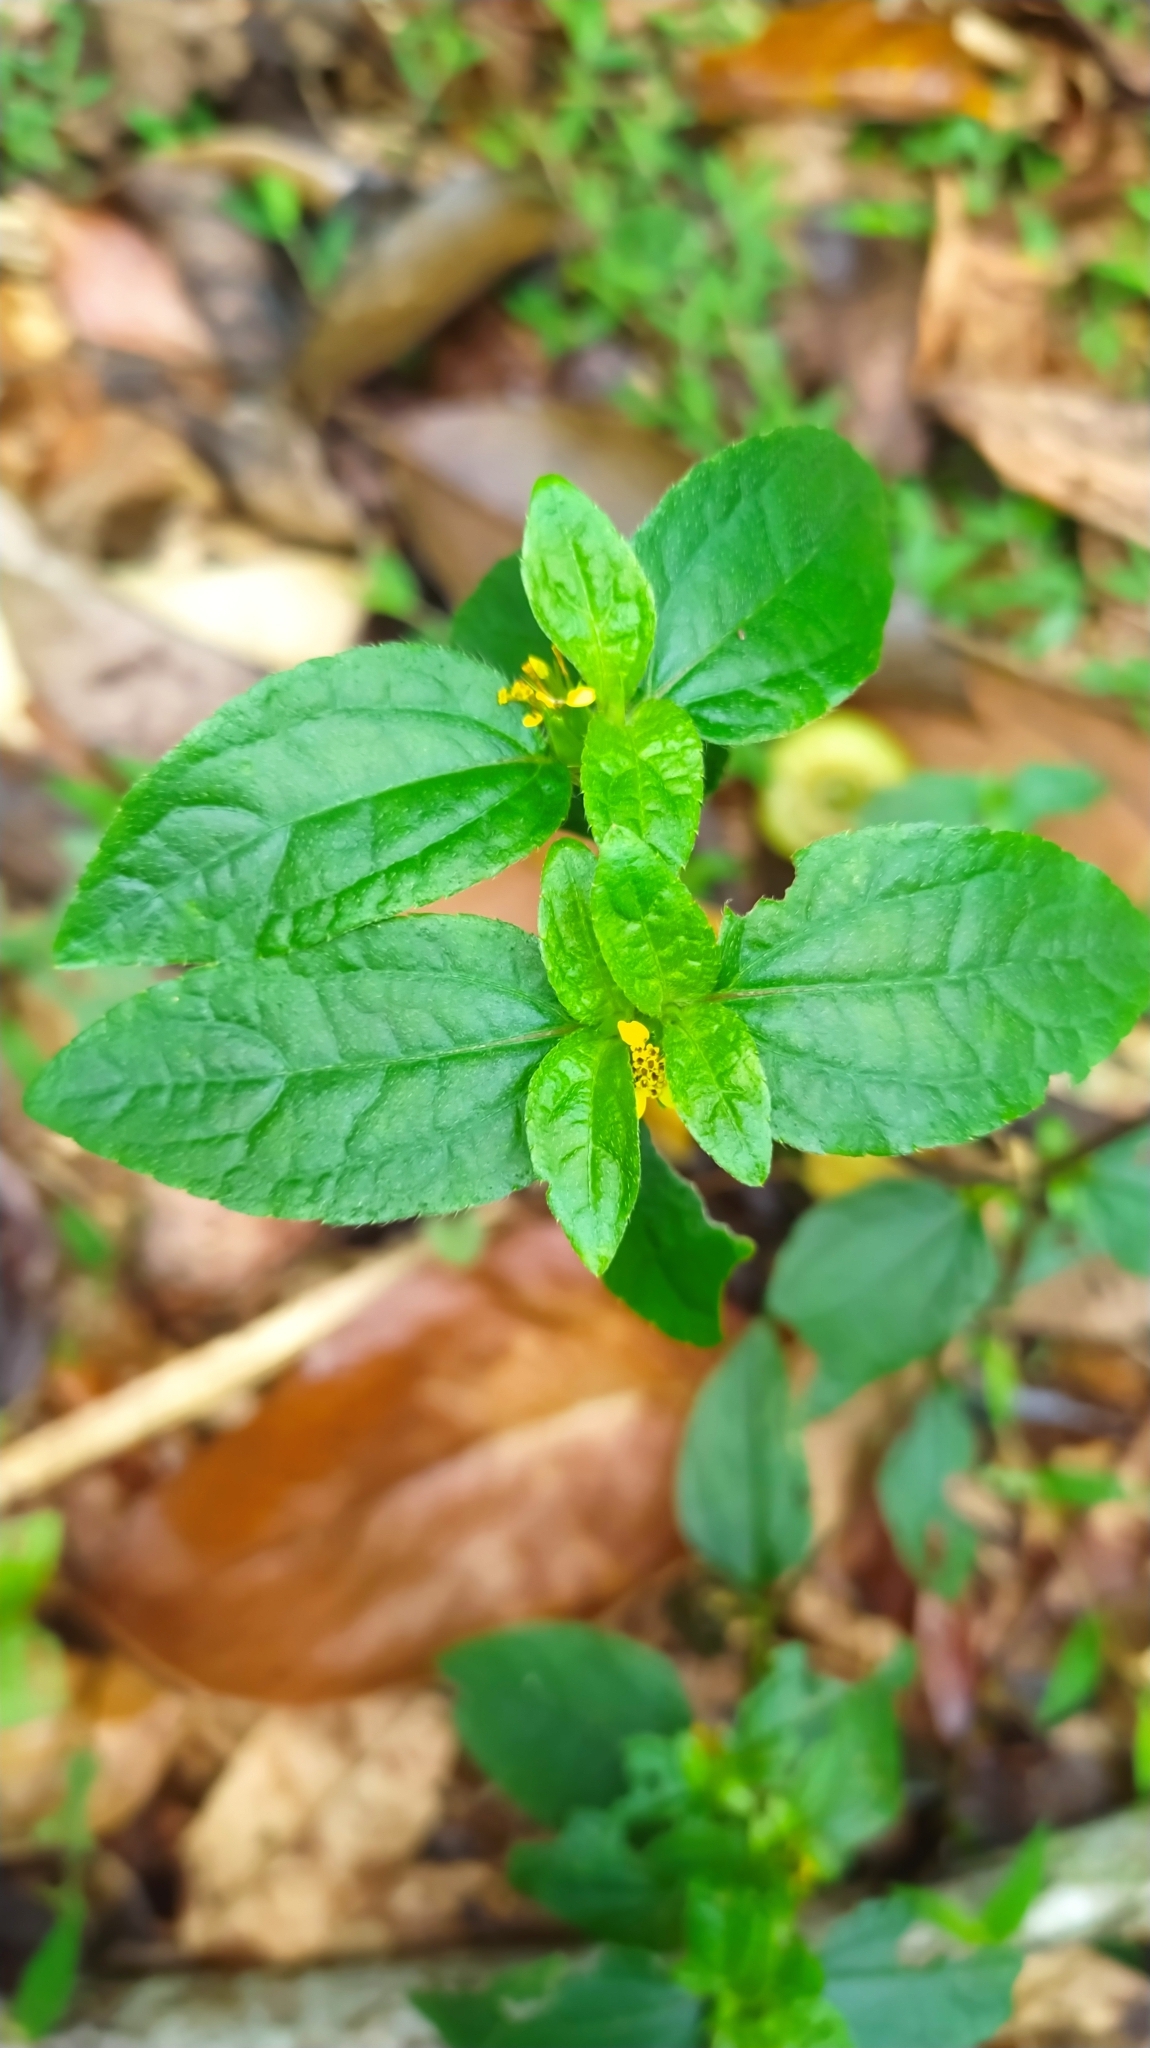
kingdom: Plantae
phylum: Tracheophyta
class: Magnoliopsida
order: Asterales
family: Asteraceae
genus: Synedrella
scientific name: Synedrella nodiflora
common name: Nodeweed
